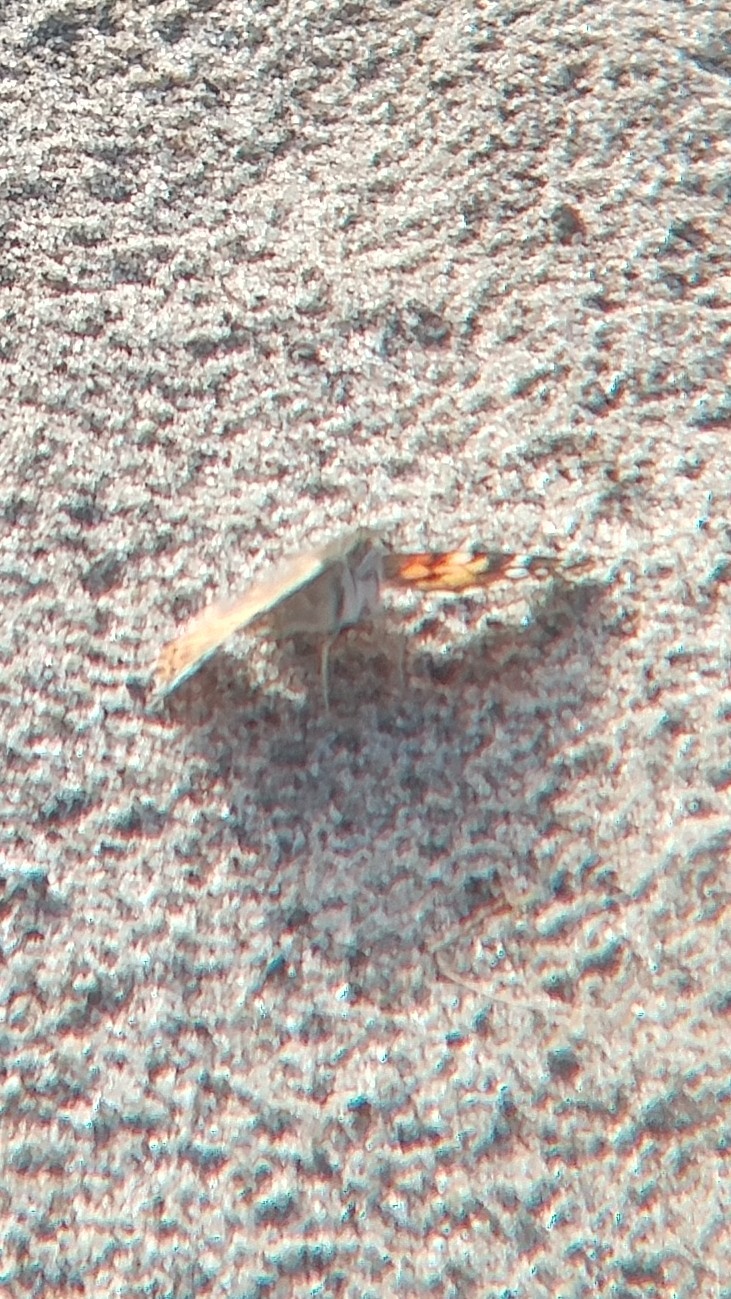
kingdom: Animalia
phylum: Arthropoda
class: Insecta
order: Lepidoptera
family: Nymphalidae
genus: Vanessa
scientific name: Vanessa cardui
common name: Painted lady
